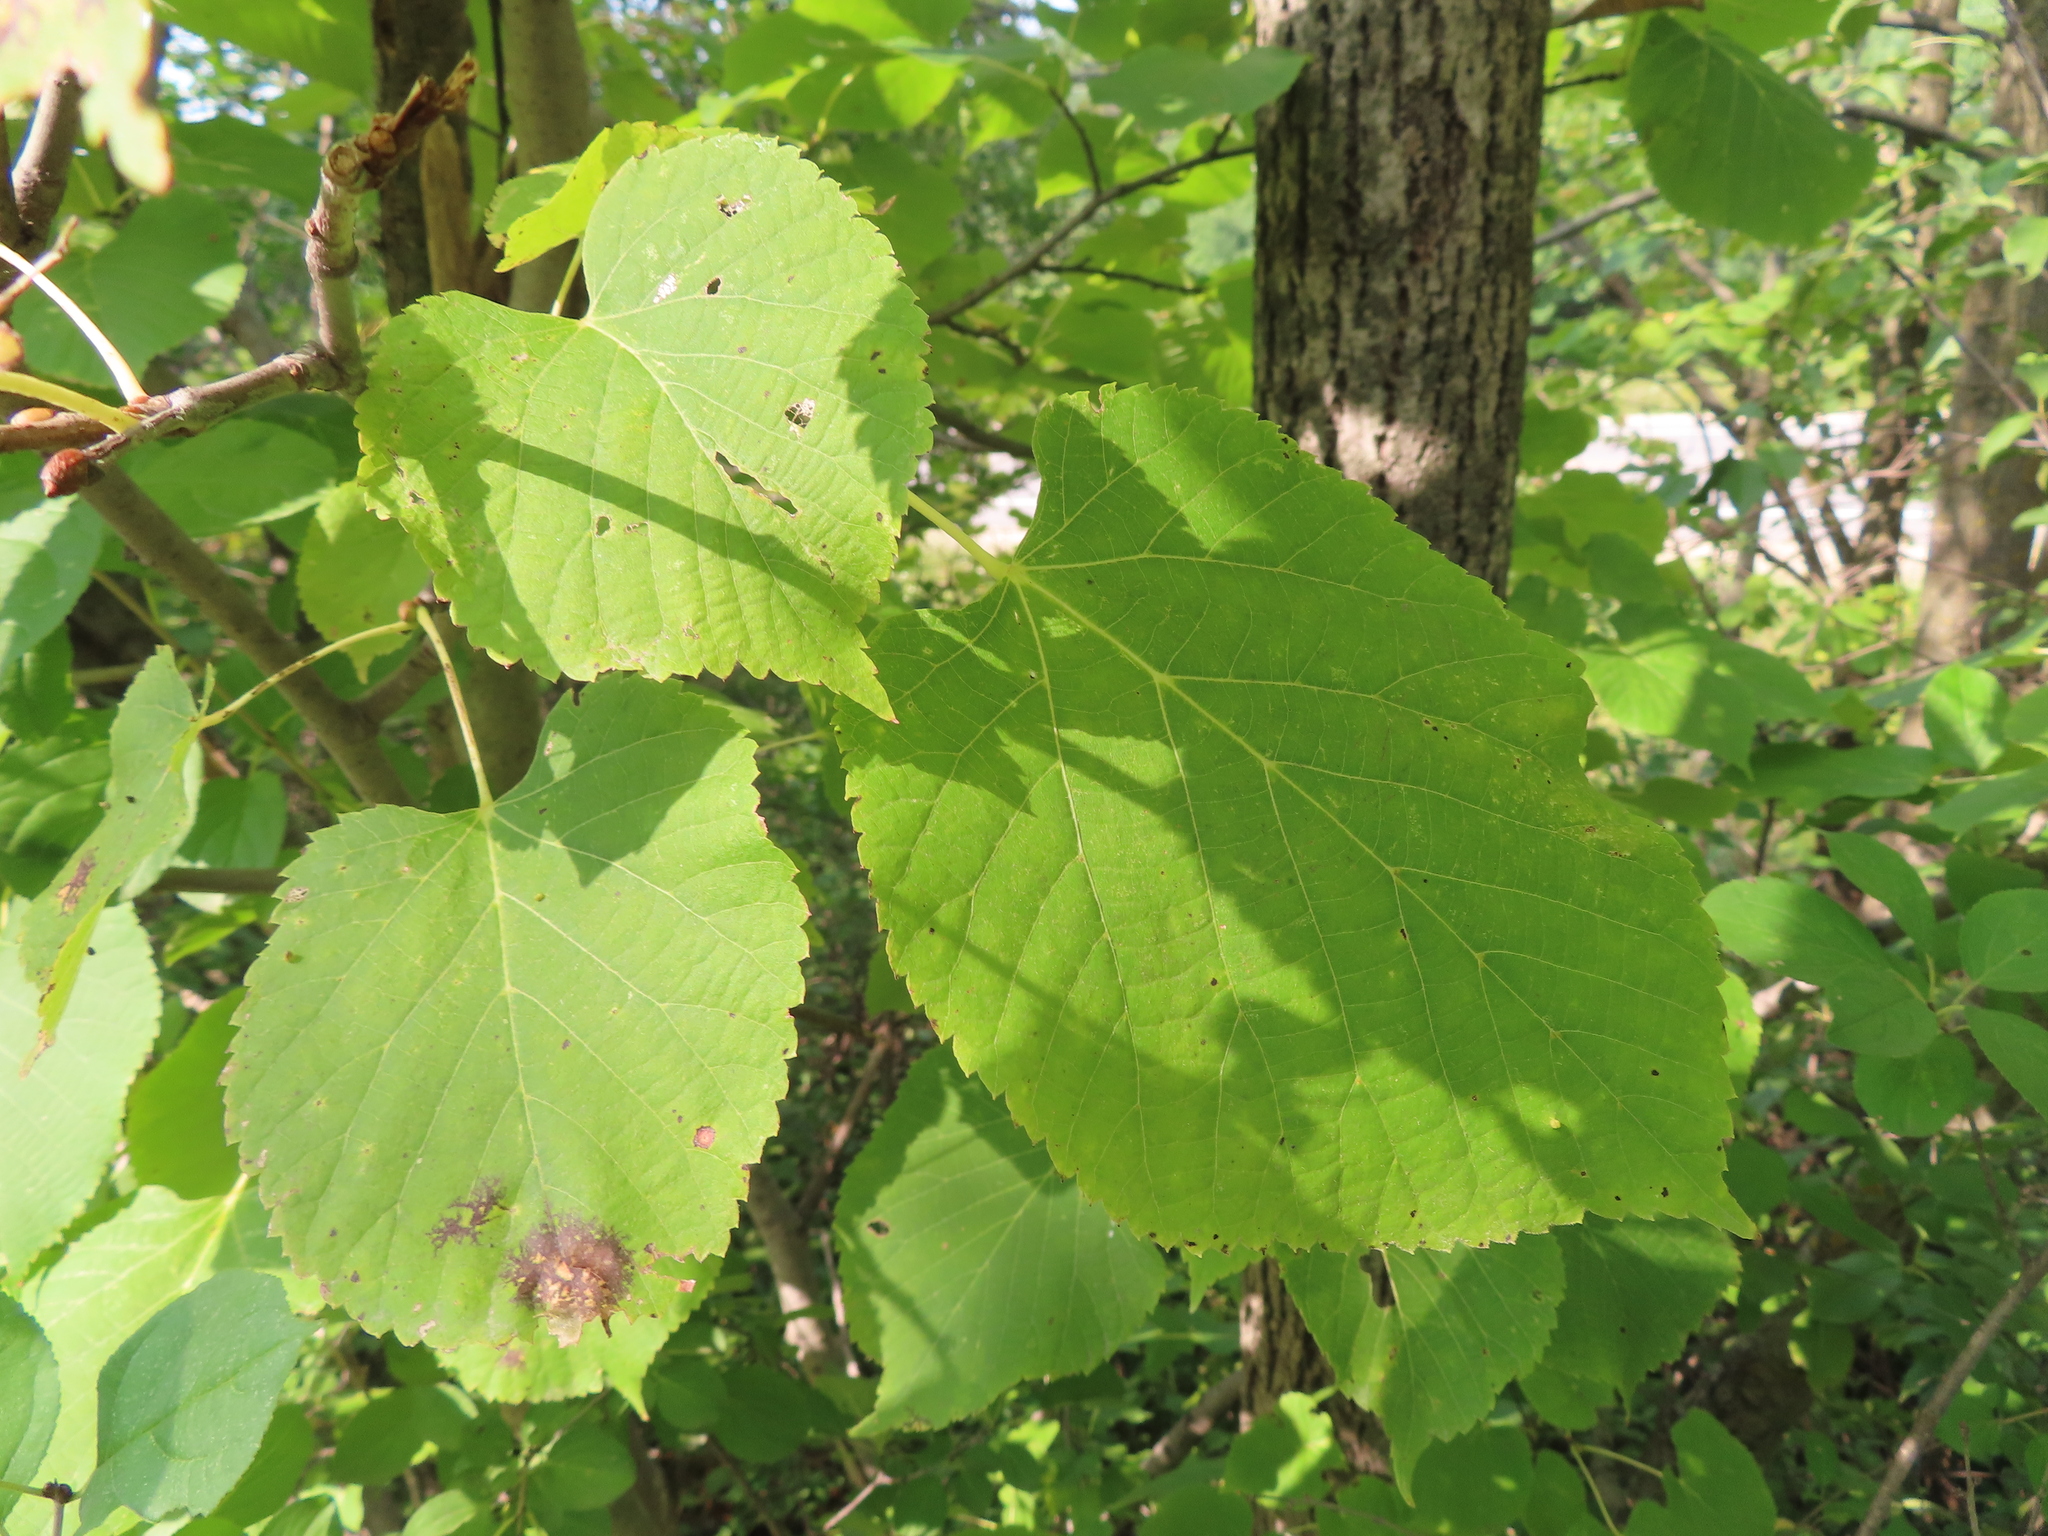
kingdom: Plantae
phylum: Tracheophyta
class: Magnoliopsida
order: Malvales
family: Malvaceae
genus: Tilia
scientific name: Tilia americana
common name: Basswood
